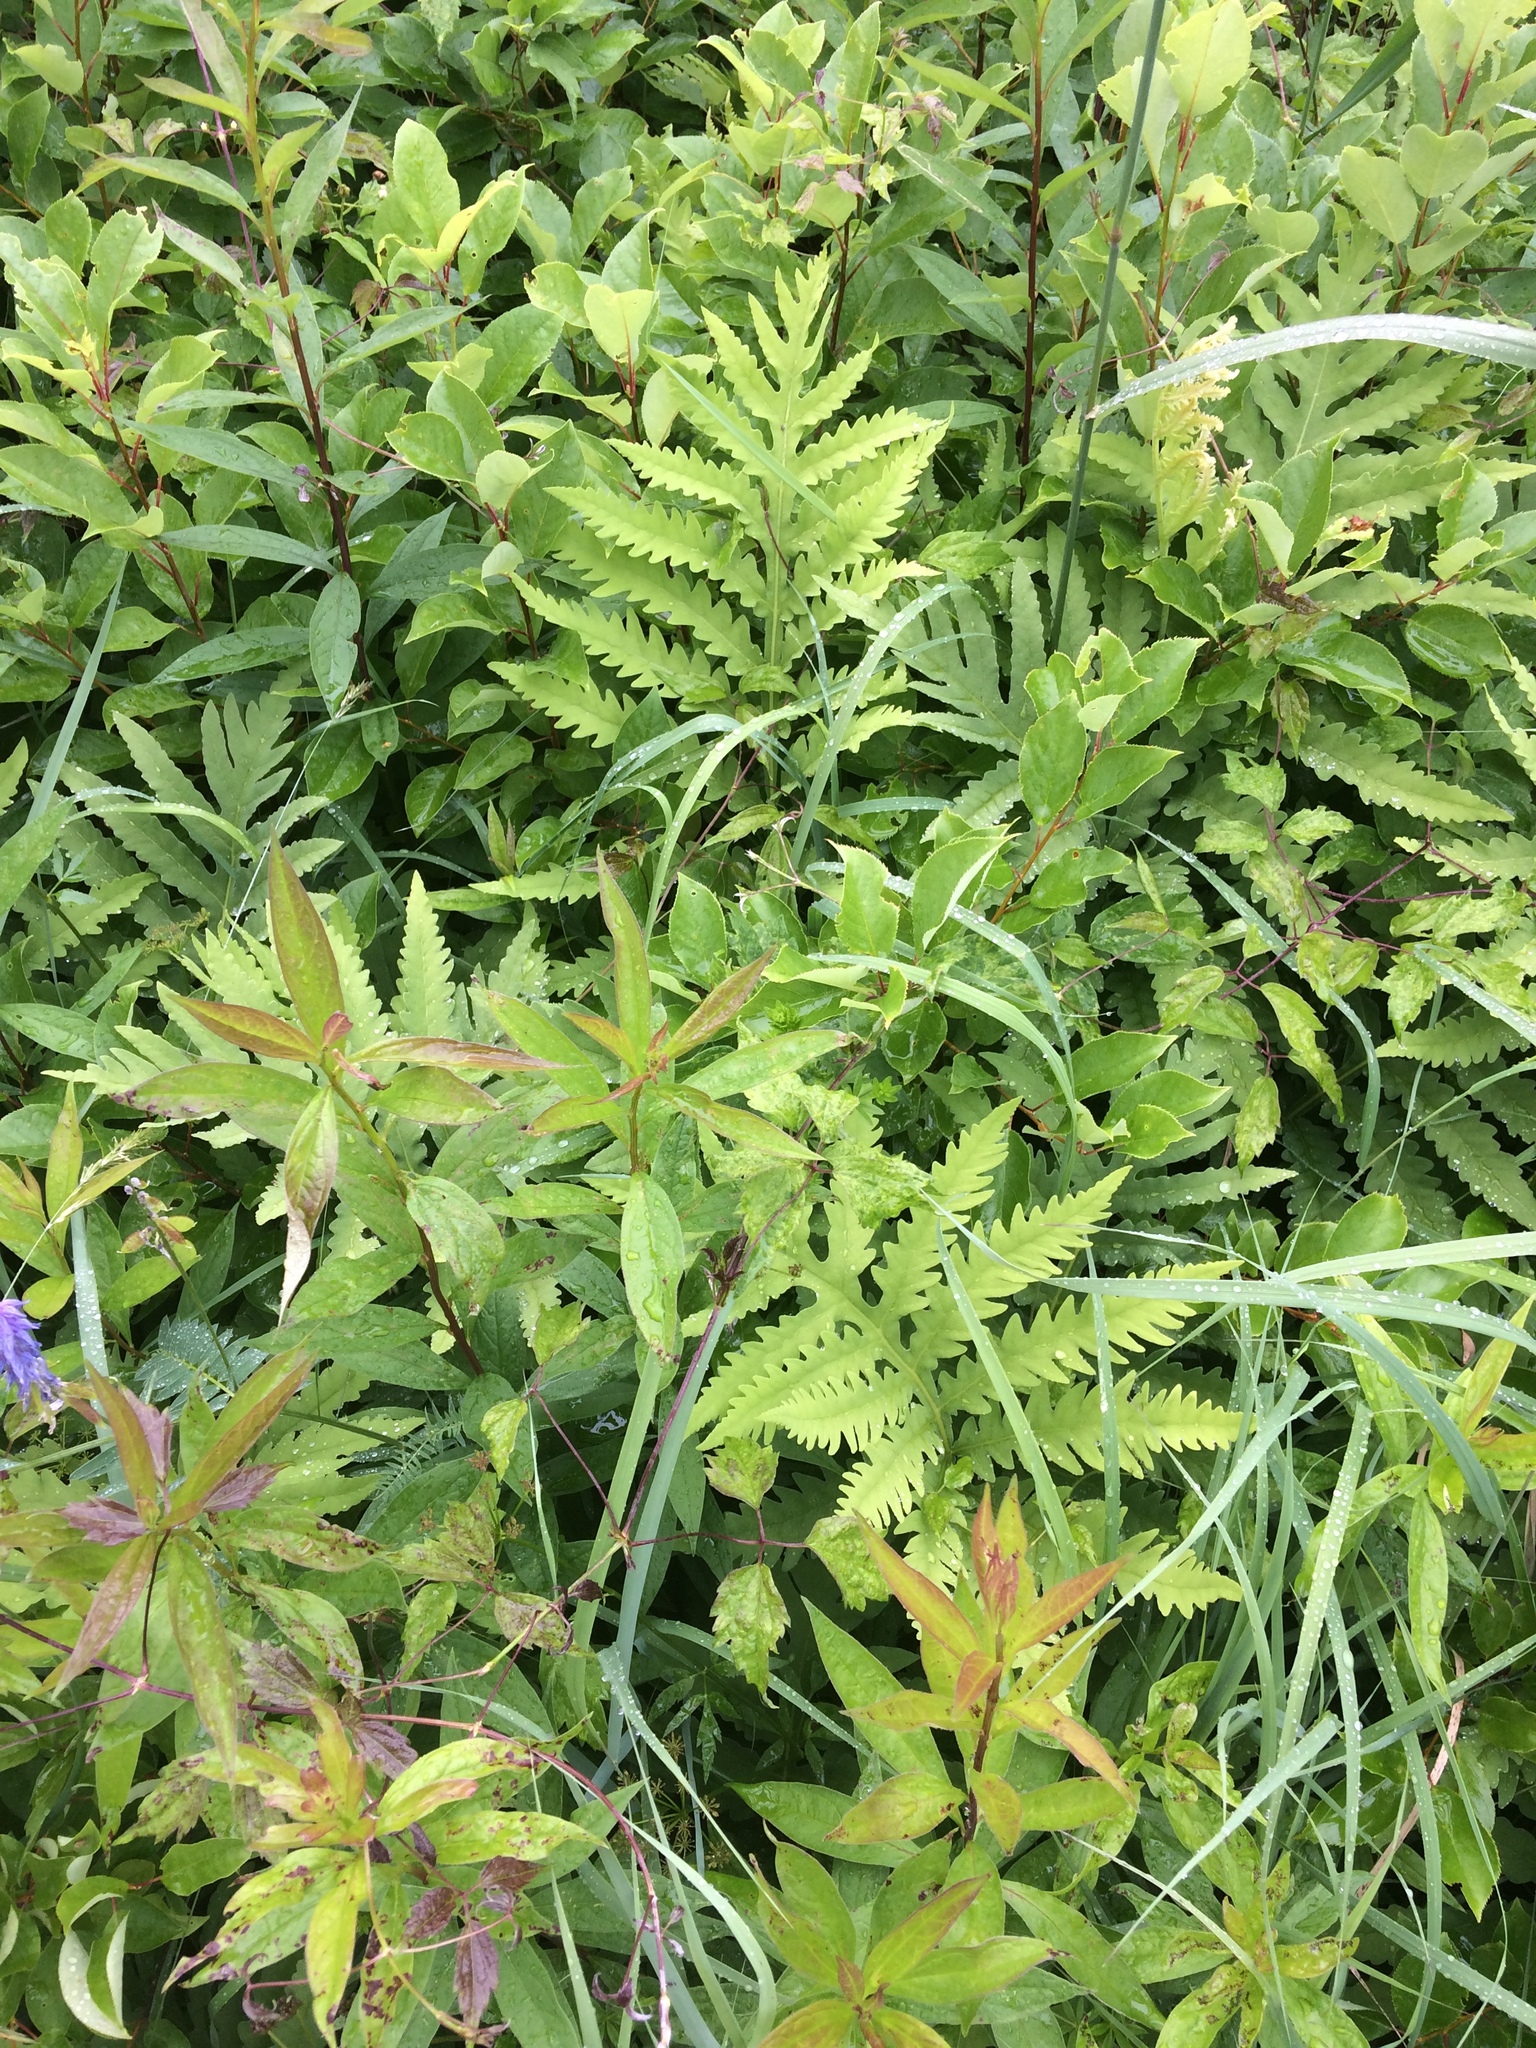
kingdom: Plantae
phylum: Tracheophyta
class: Polypodiopsida
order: Polypodiales
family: Onocleaceae
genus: Onoclea
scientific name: Onoclea sensibilis
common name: Sensitive fern
